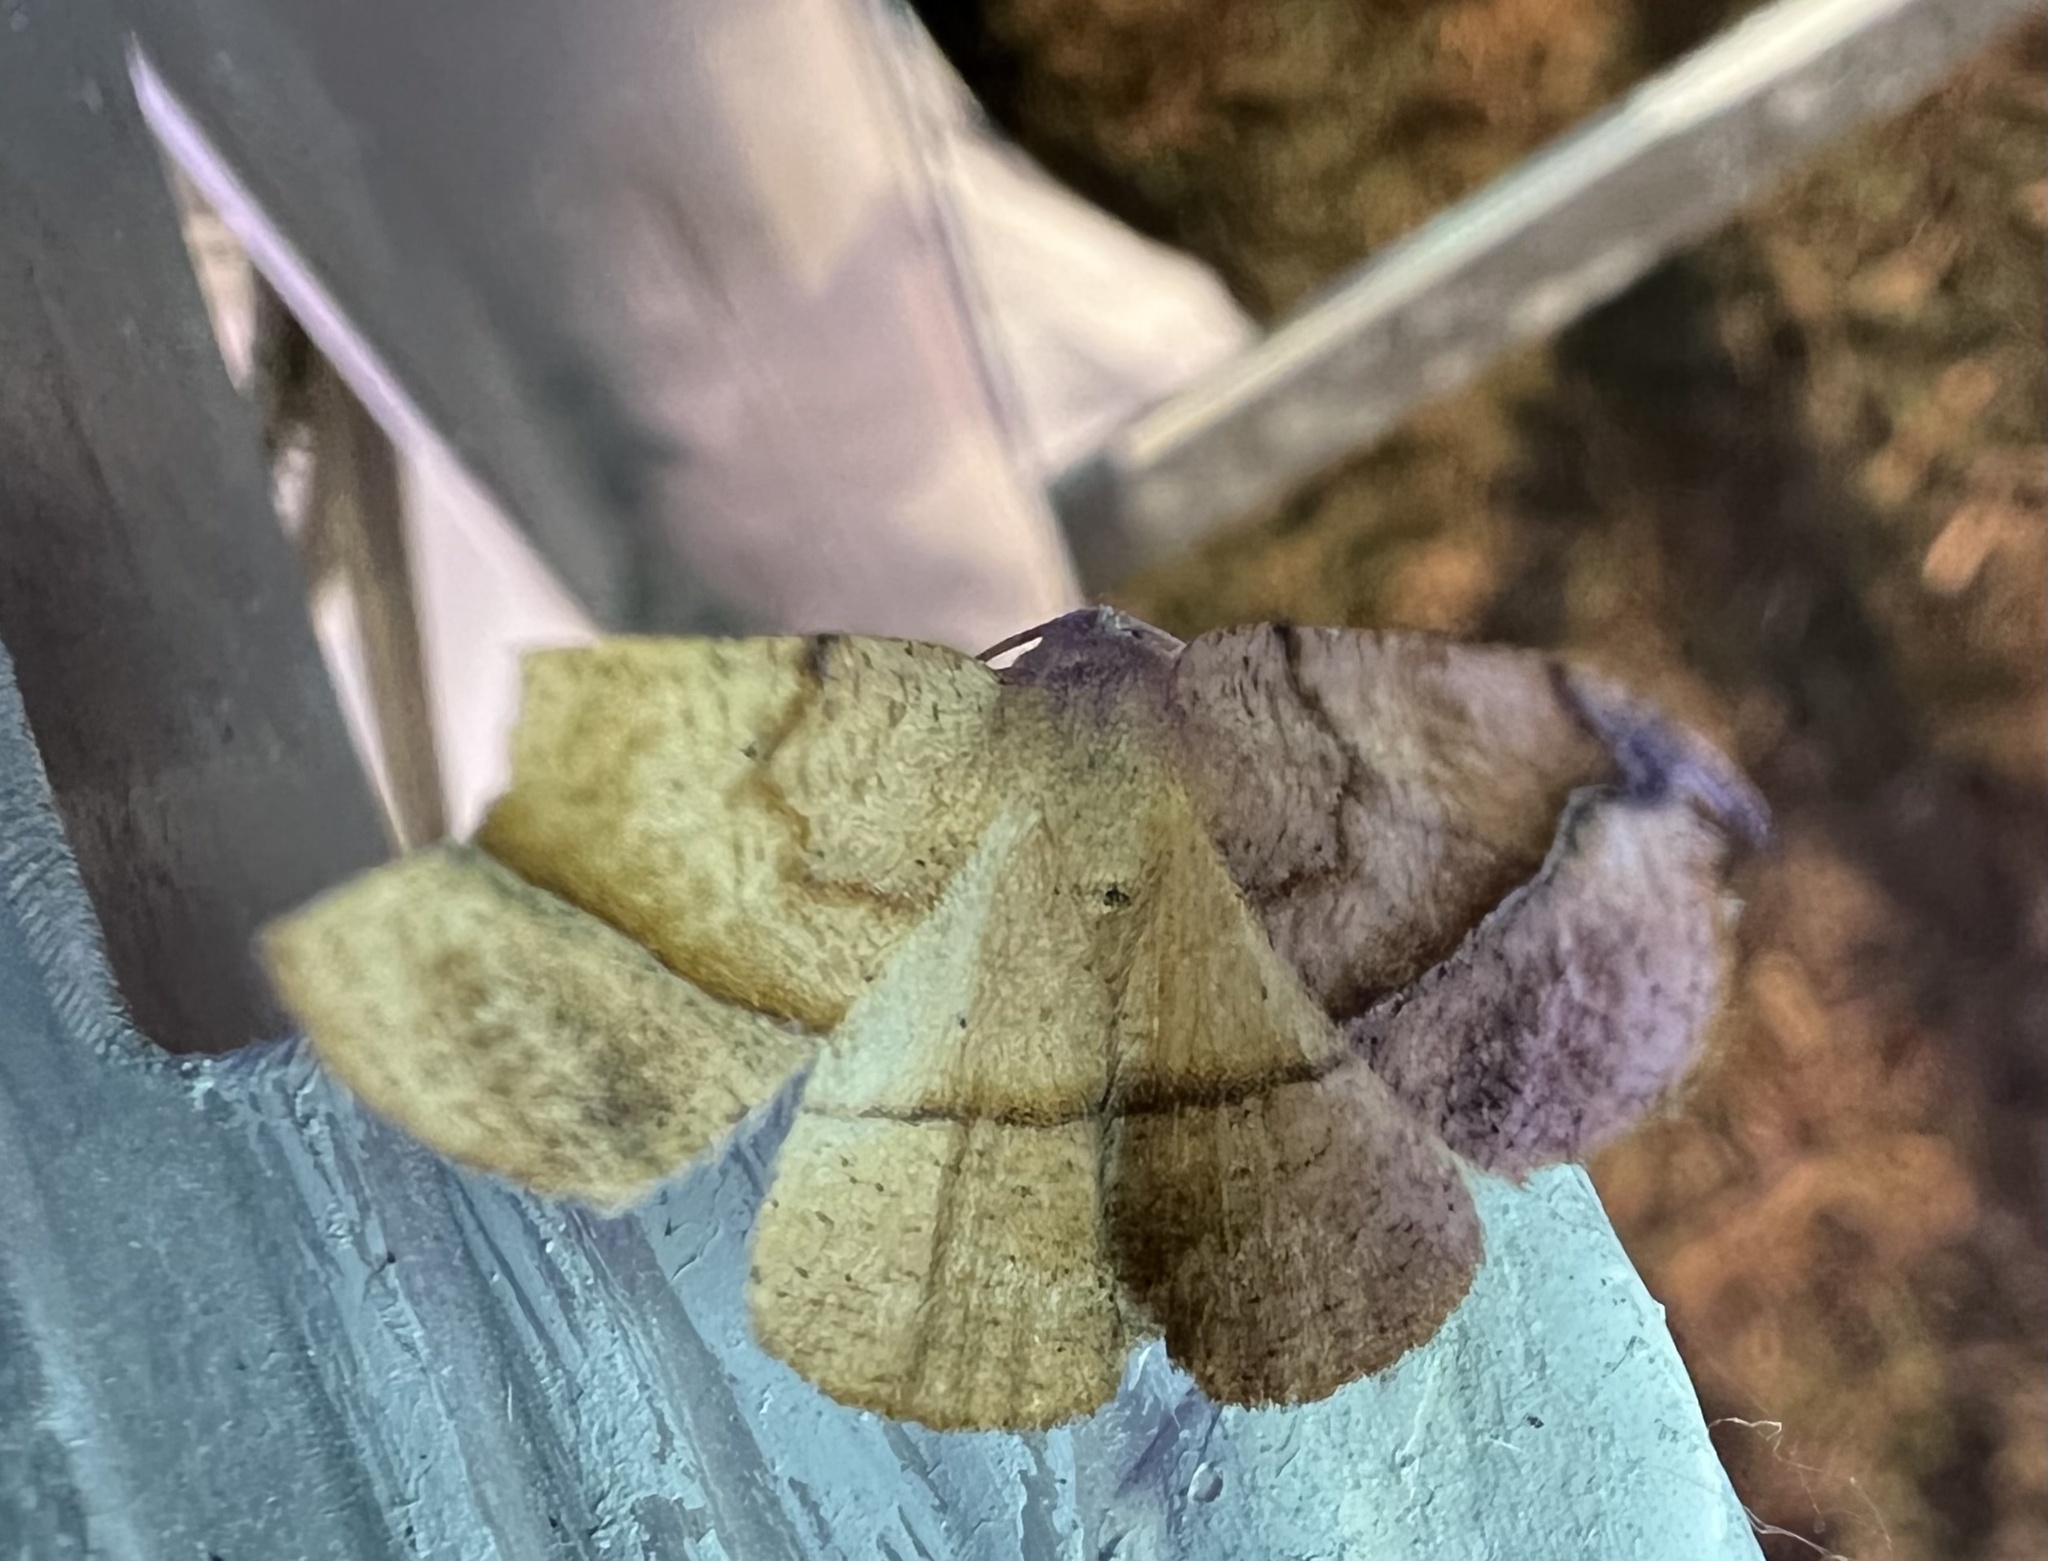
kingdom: Animalia
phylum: Arthropoda
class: Insecta
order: Lepidoptera
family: Geometridae
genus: Patalene
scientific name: Patalene olyzonaria
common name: Juniper geometer moth
